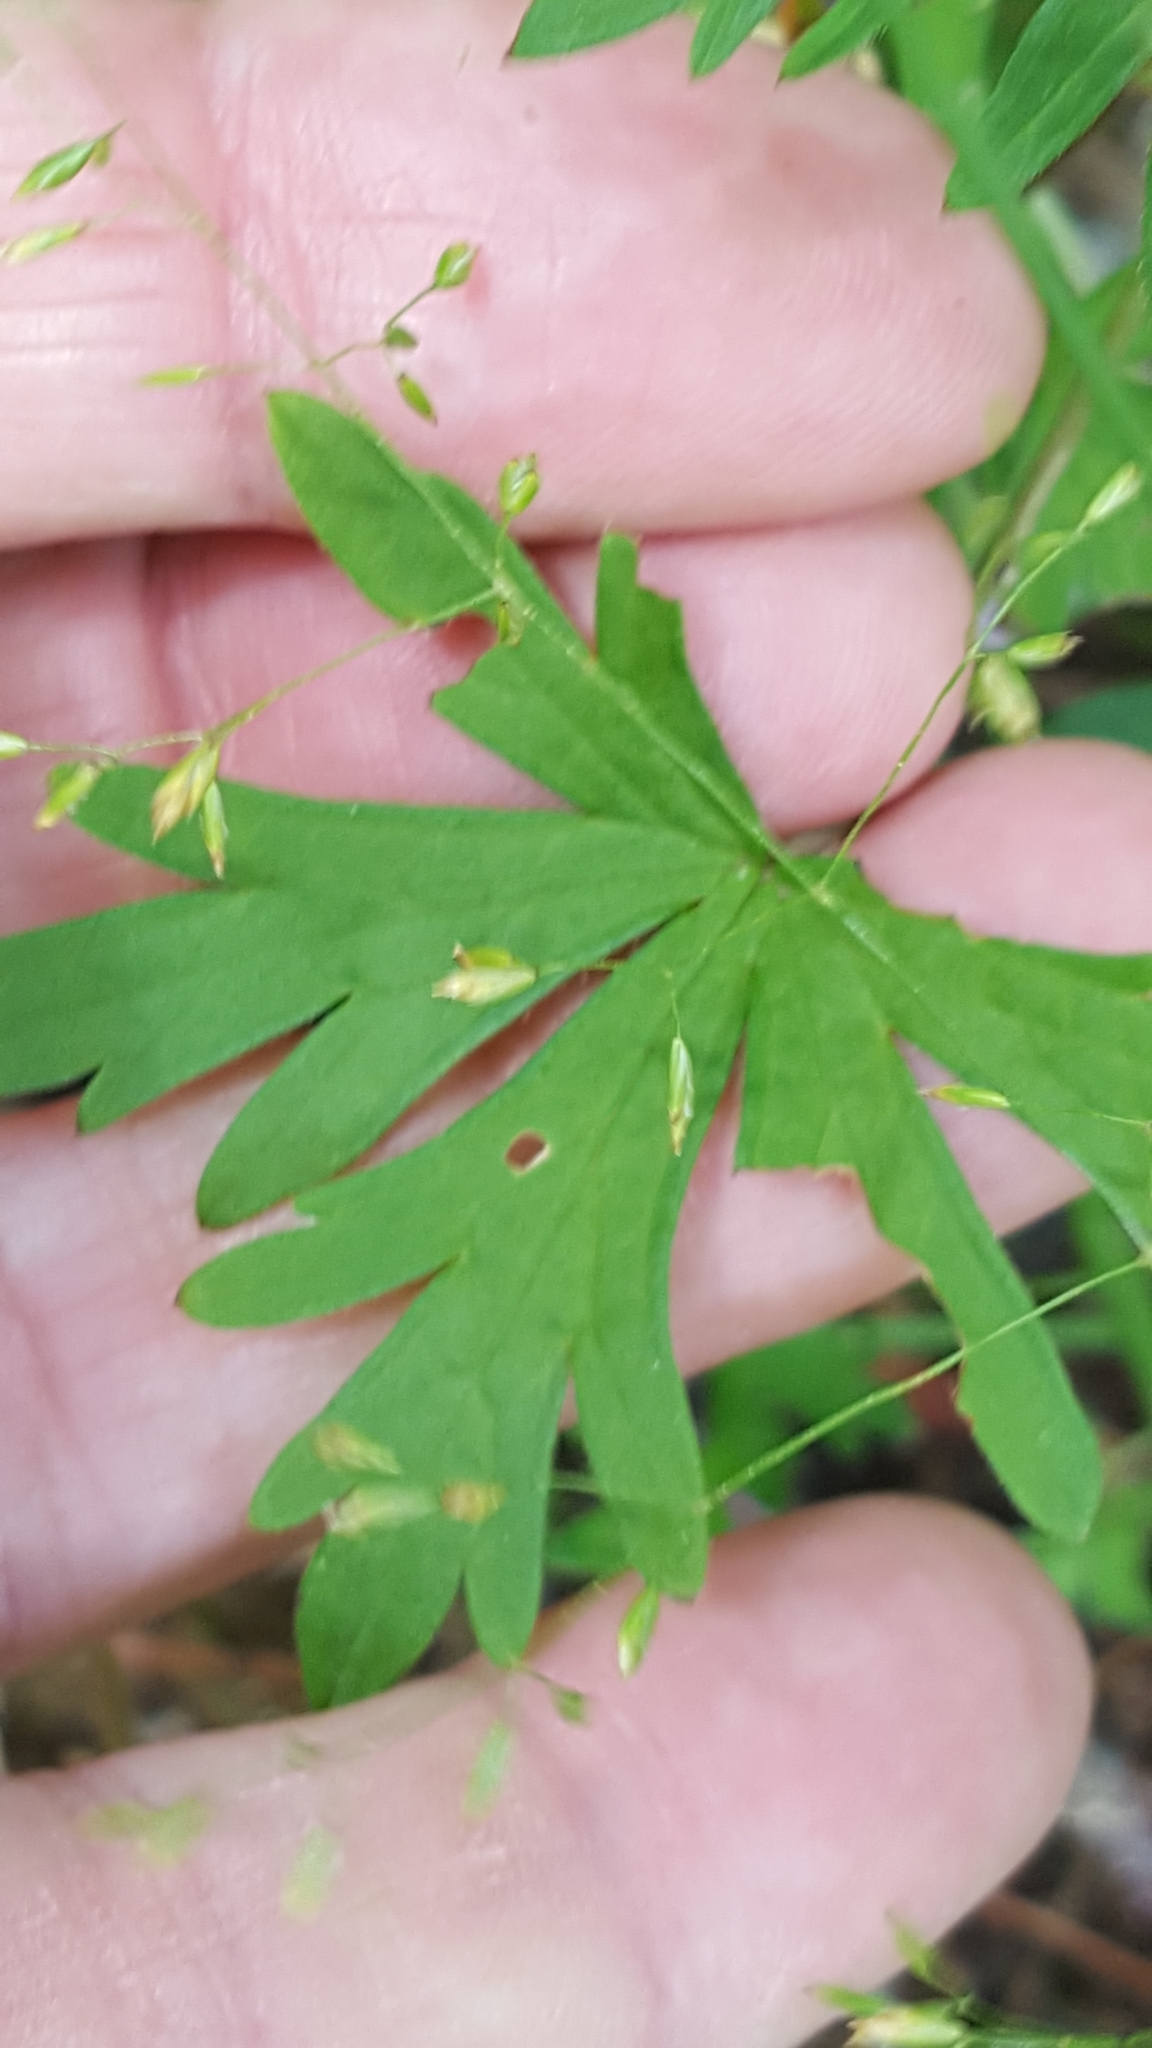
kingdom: Plantae
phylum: Tracheophyta
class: Magnoliopsida
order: Geraniales
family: Geraniaceae
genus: Geranium
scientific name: Geranium bicknellii
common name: Bicknell's cranesbill
